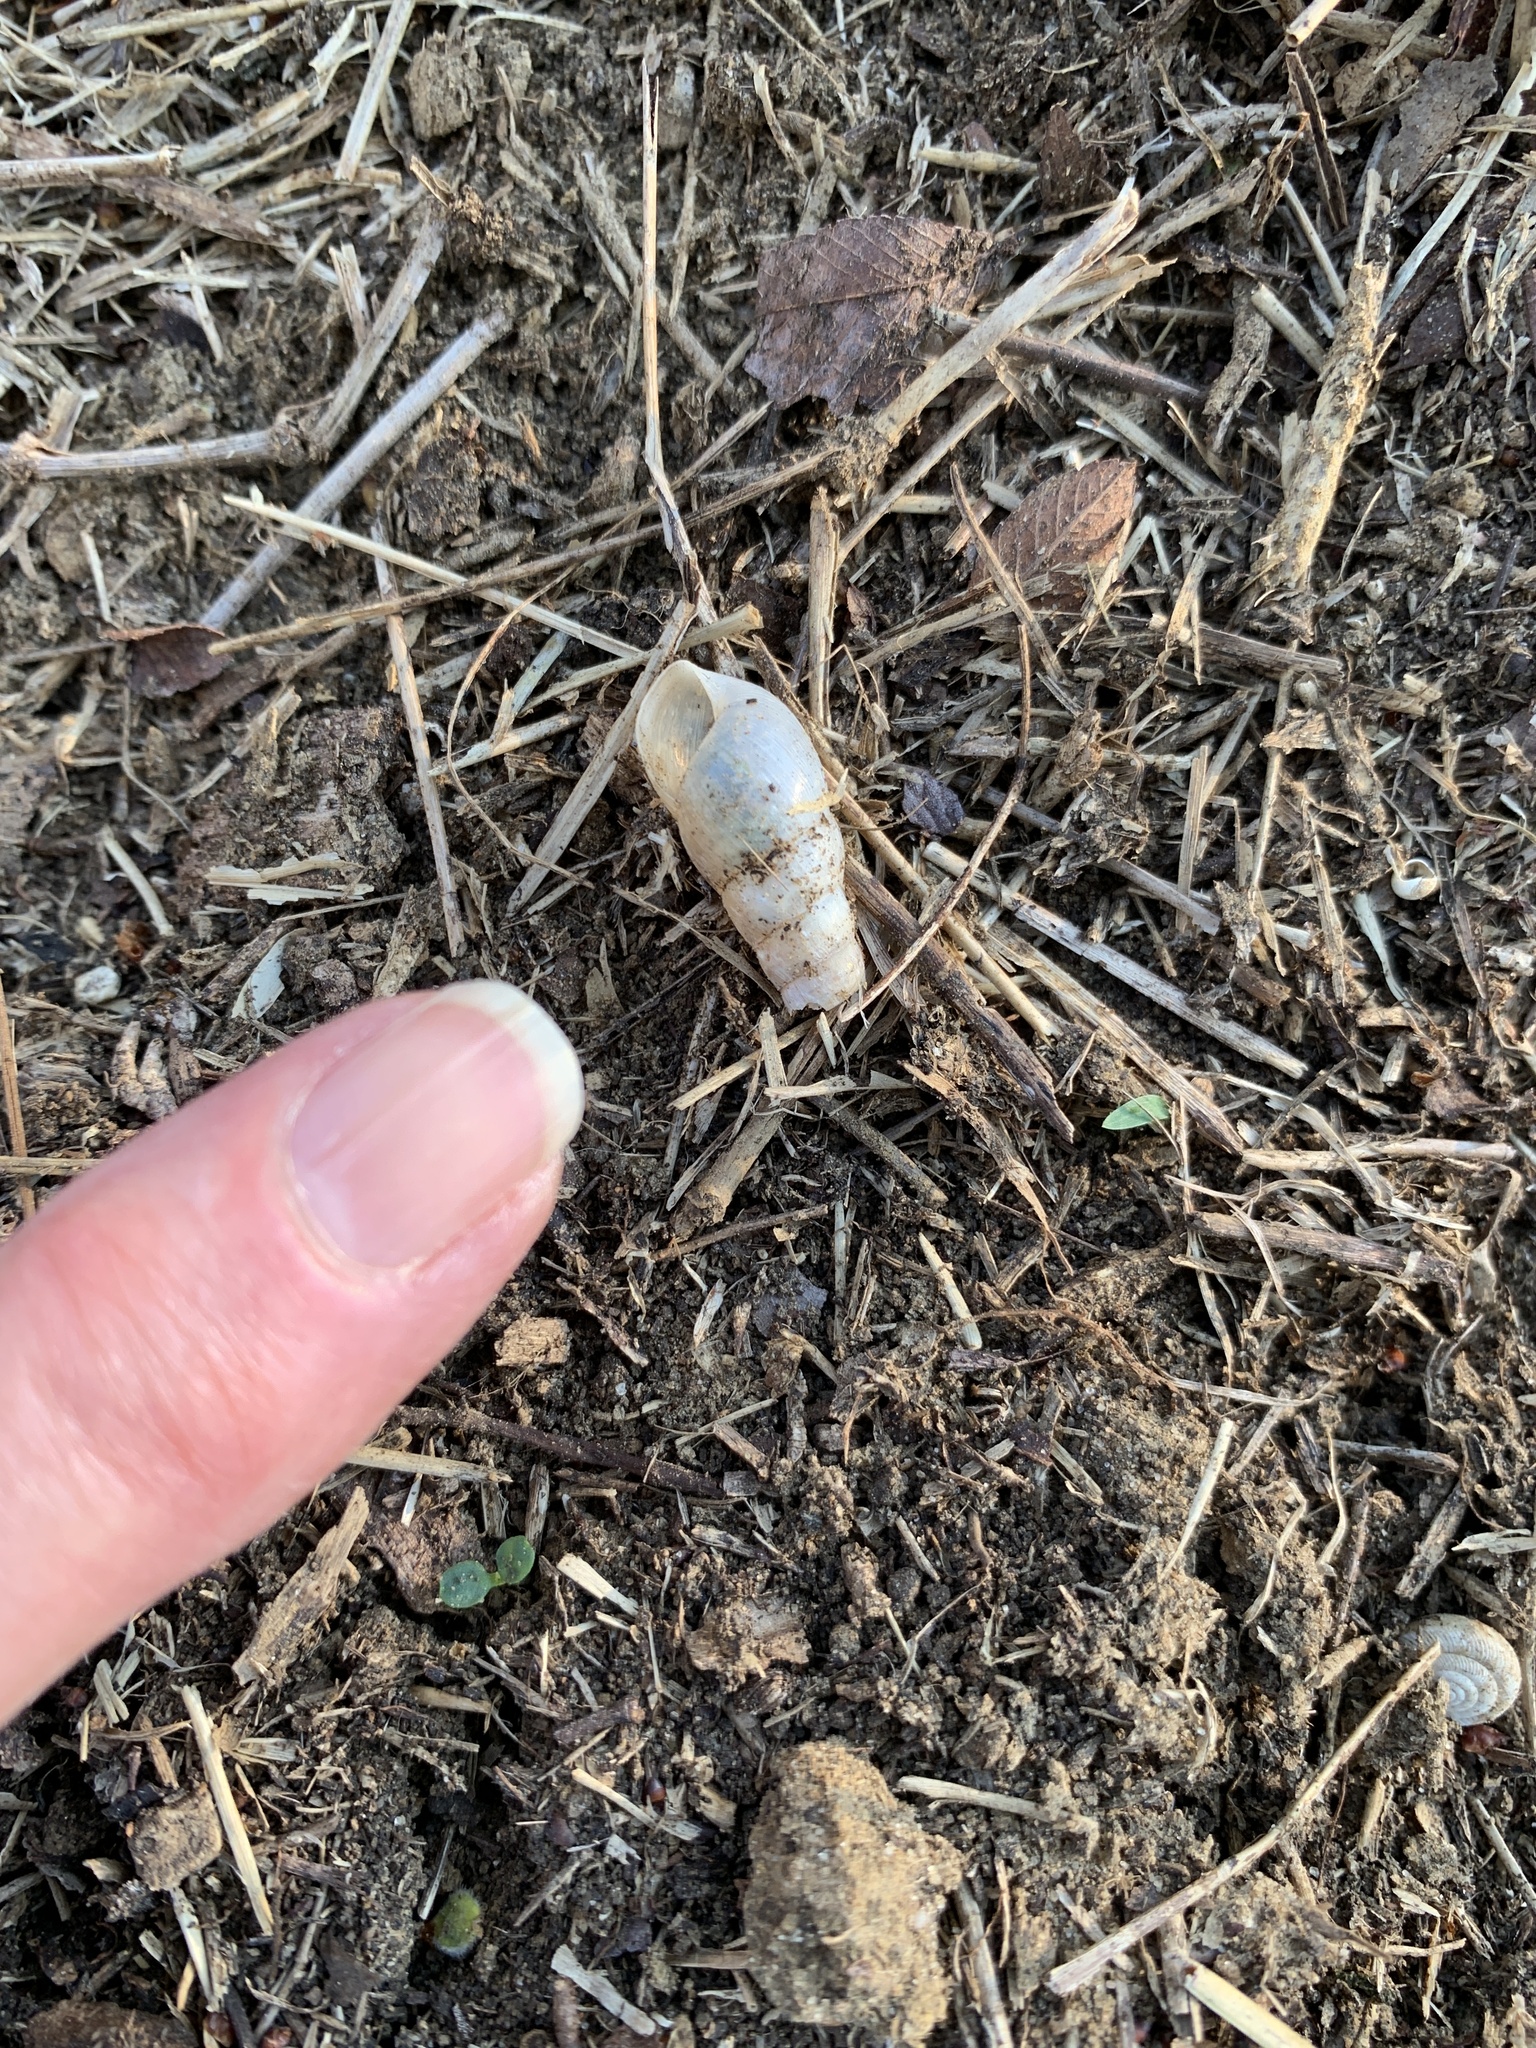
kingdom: Animalia
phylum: Mollusca
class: Gastropoda
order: Stylommatophora
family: Achatinidae
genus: Rumina
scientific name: Rumina decollata
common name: Decollate snail
